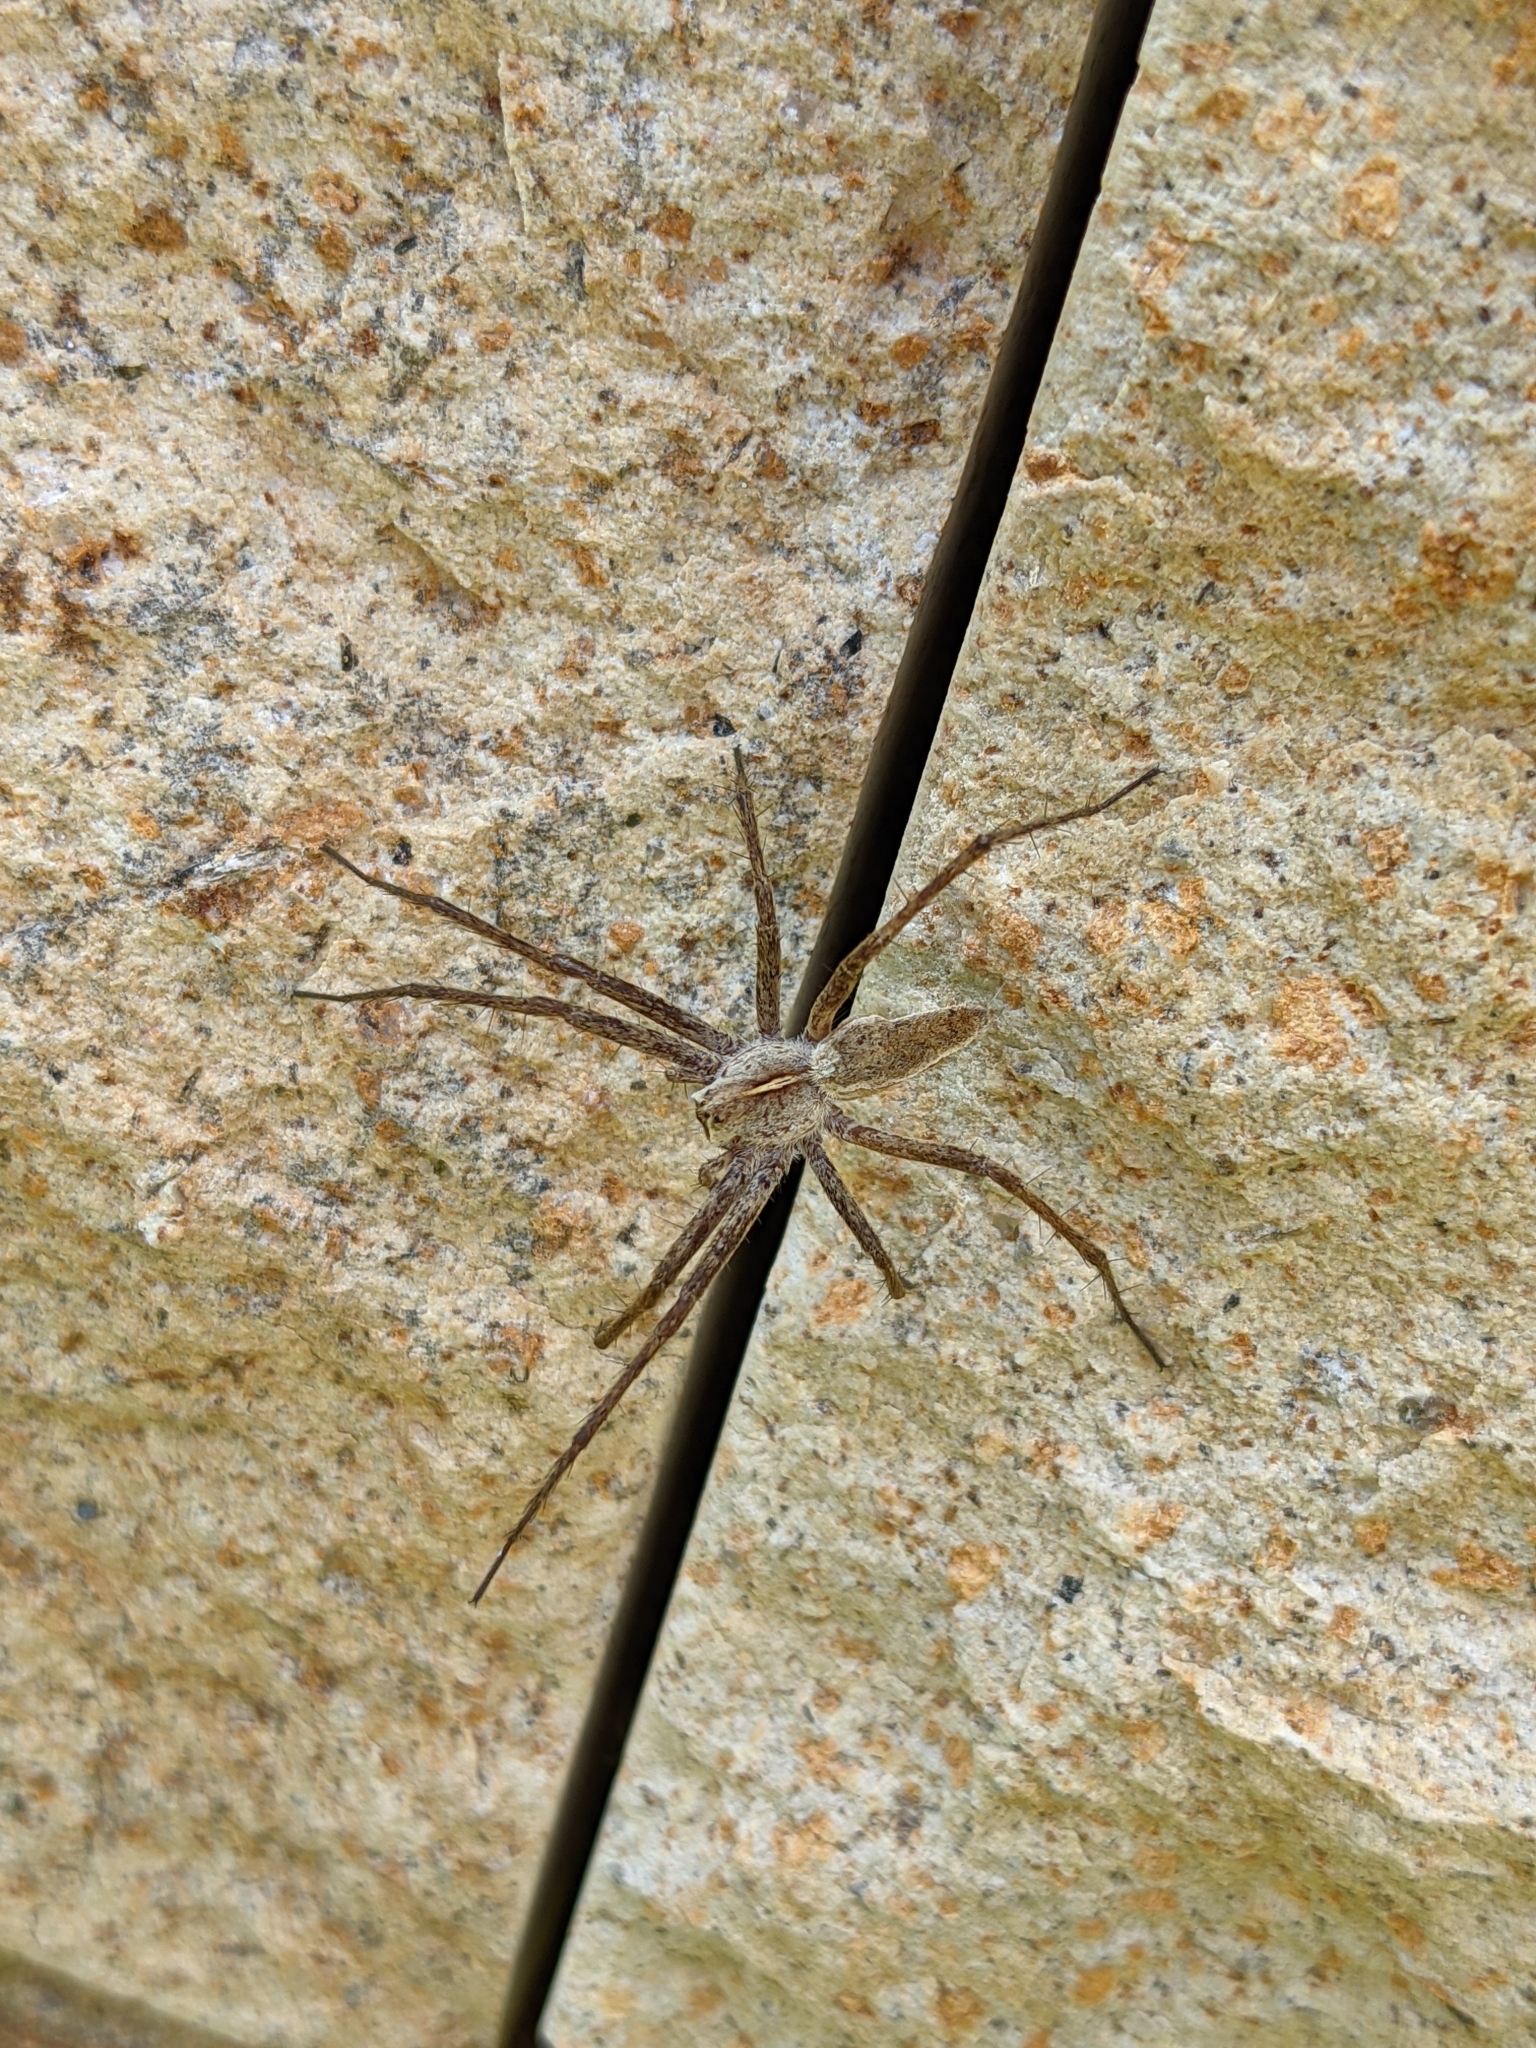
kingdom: Animalia
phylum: Arthropoda
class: Arachnida
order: Araneae
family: Pisauridae
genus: Pisaura
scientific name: Pisaura mirabilis
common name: Tent spider
